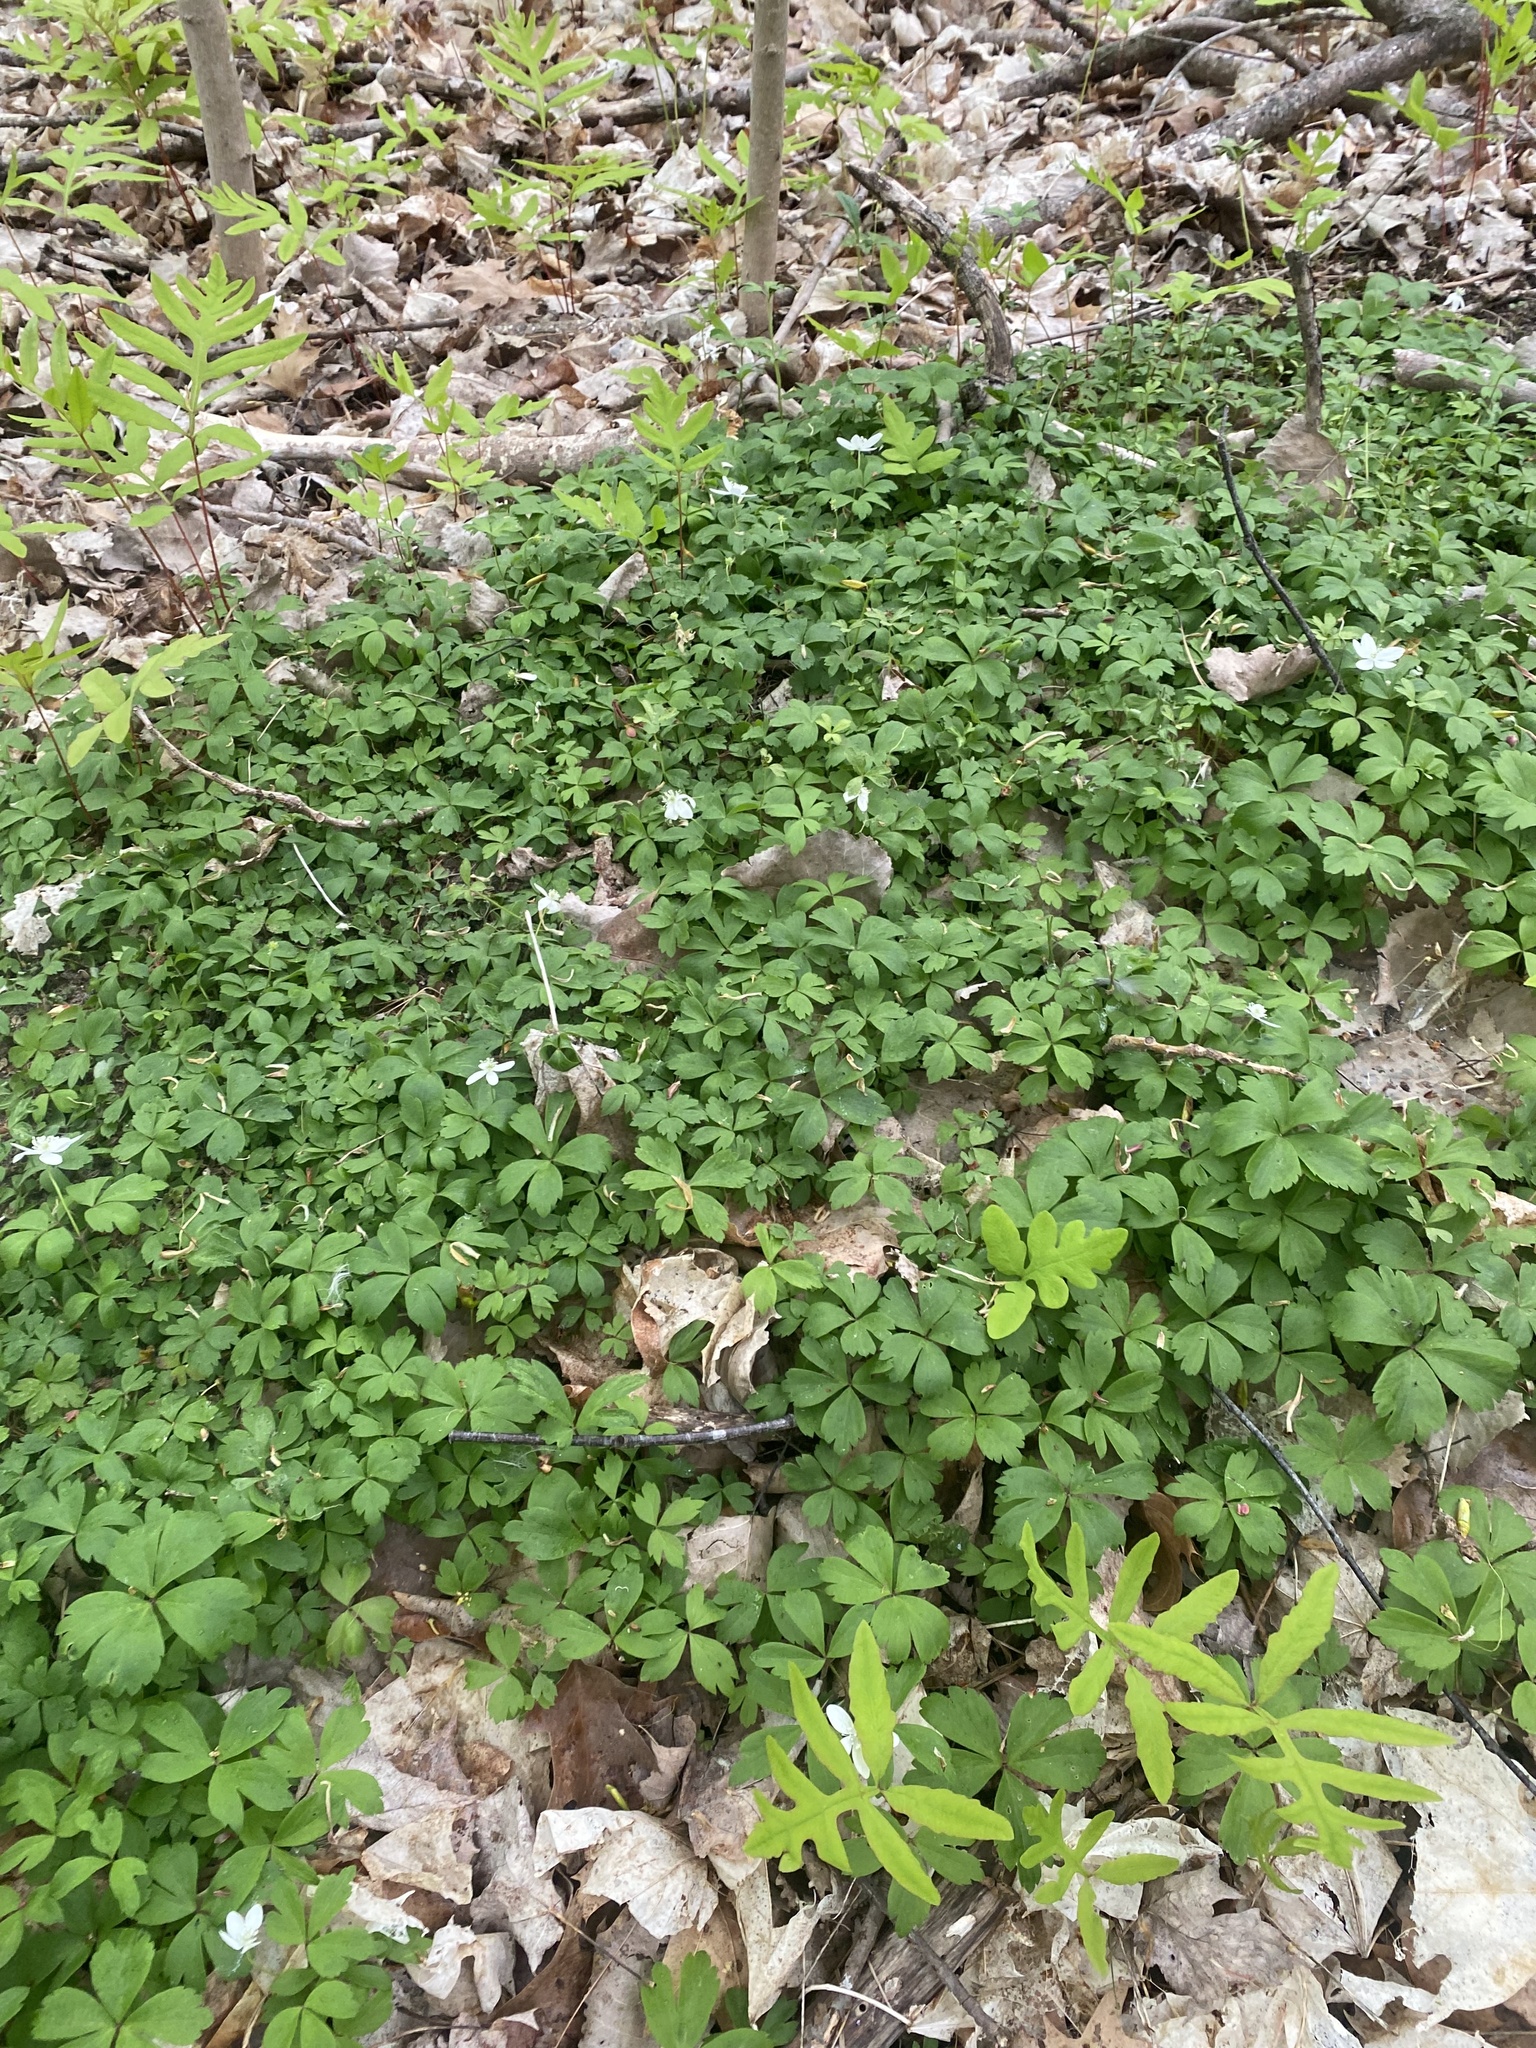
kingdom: Plantae
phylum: Tracheophyta
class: Magnoliopsida
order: Ranunculales
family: Ranunculaceae
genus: Anemone
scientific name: Anemone quinquefolia
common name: Wood anemone
